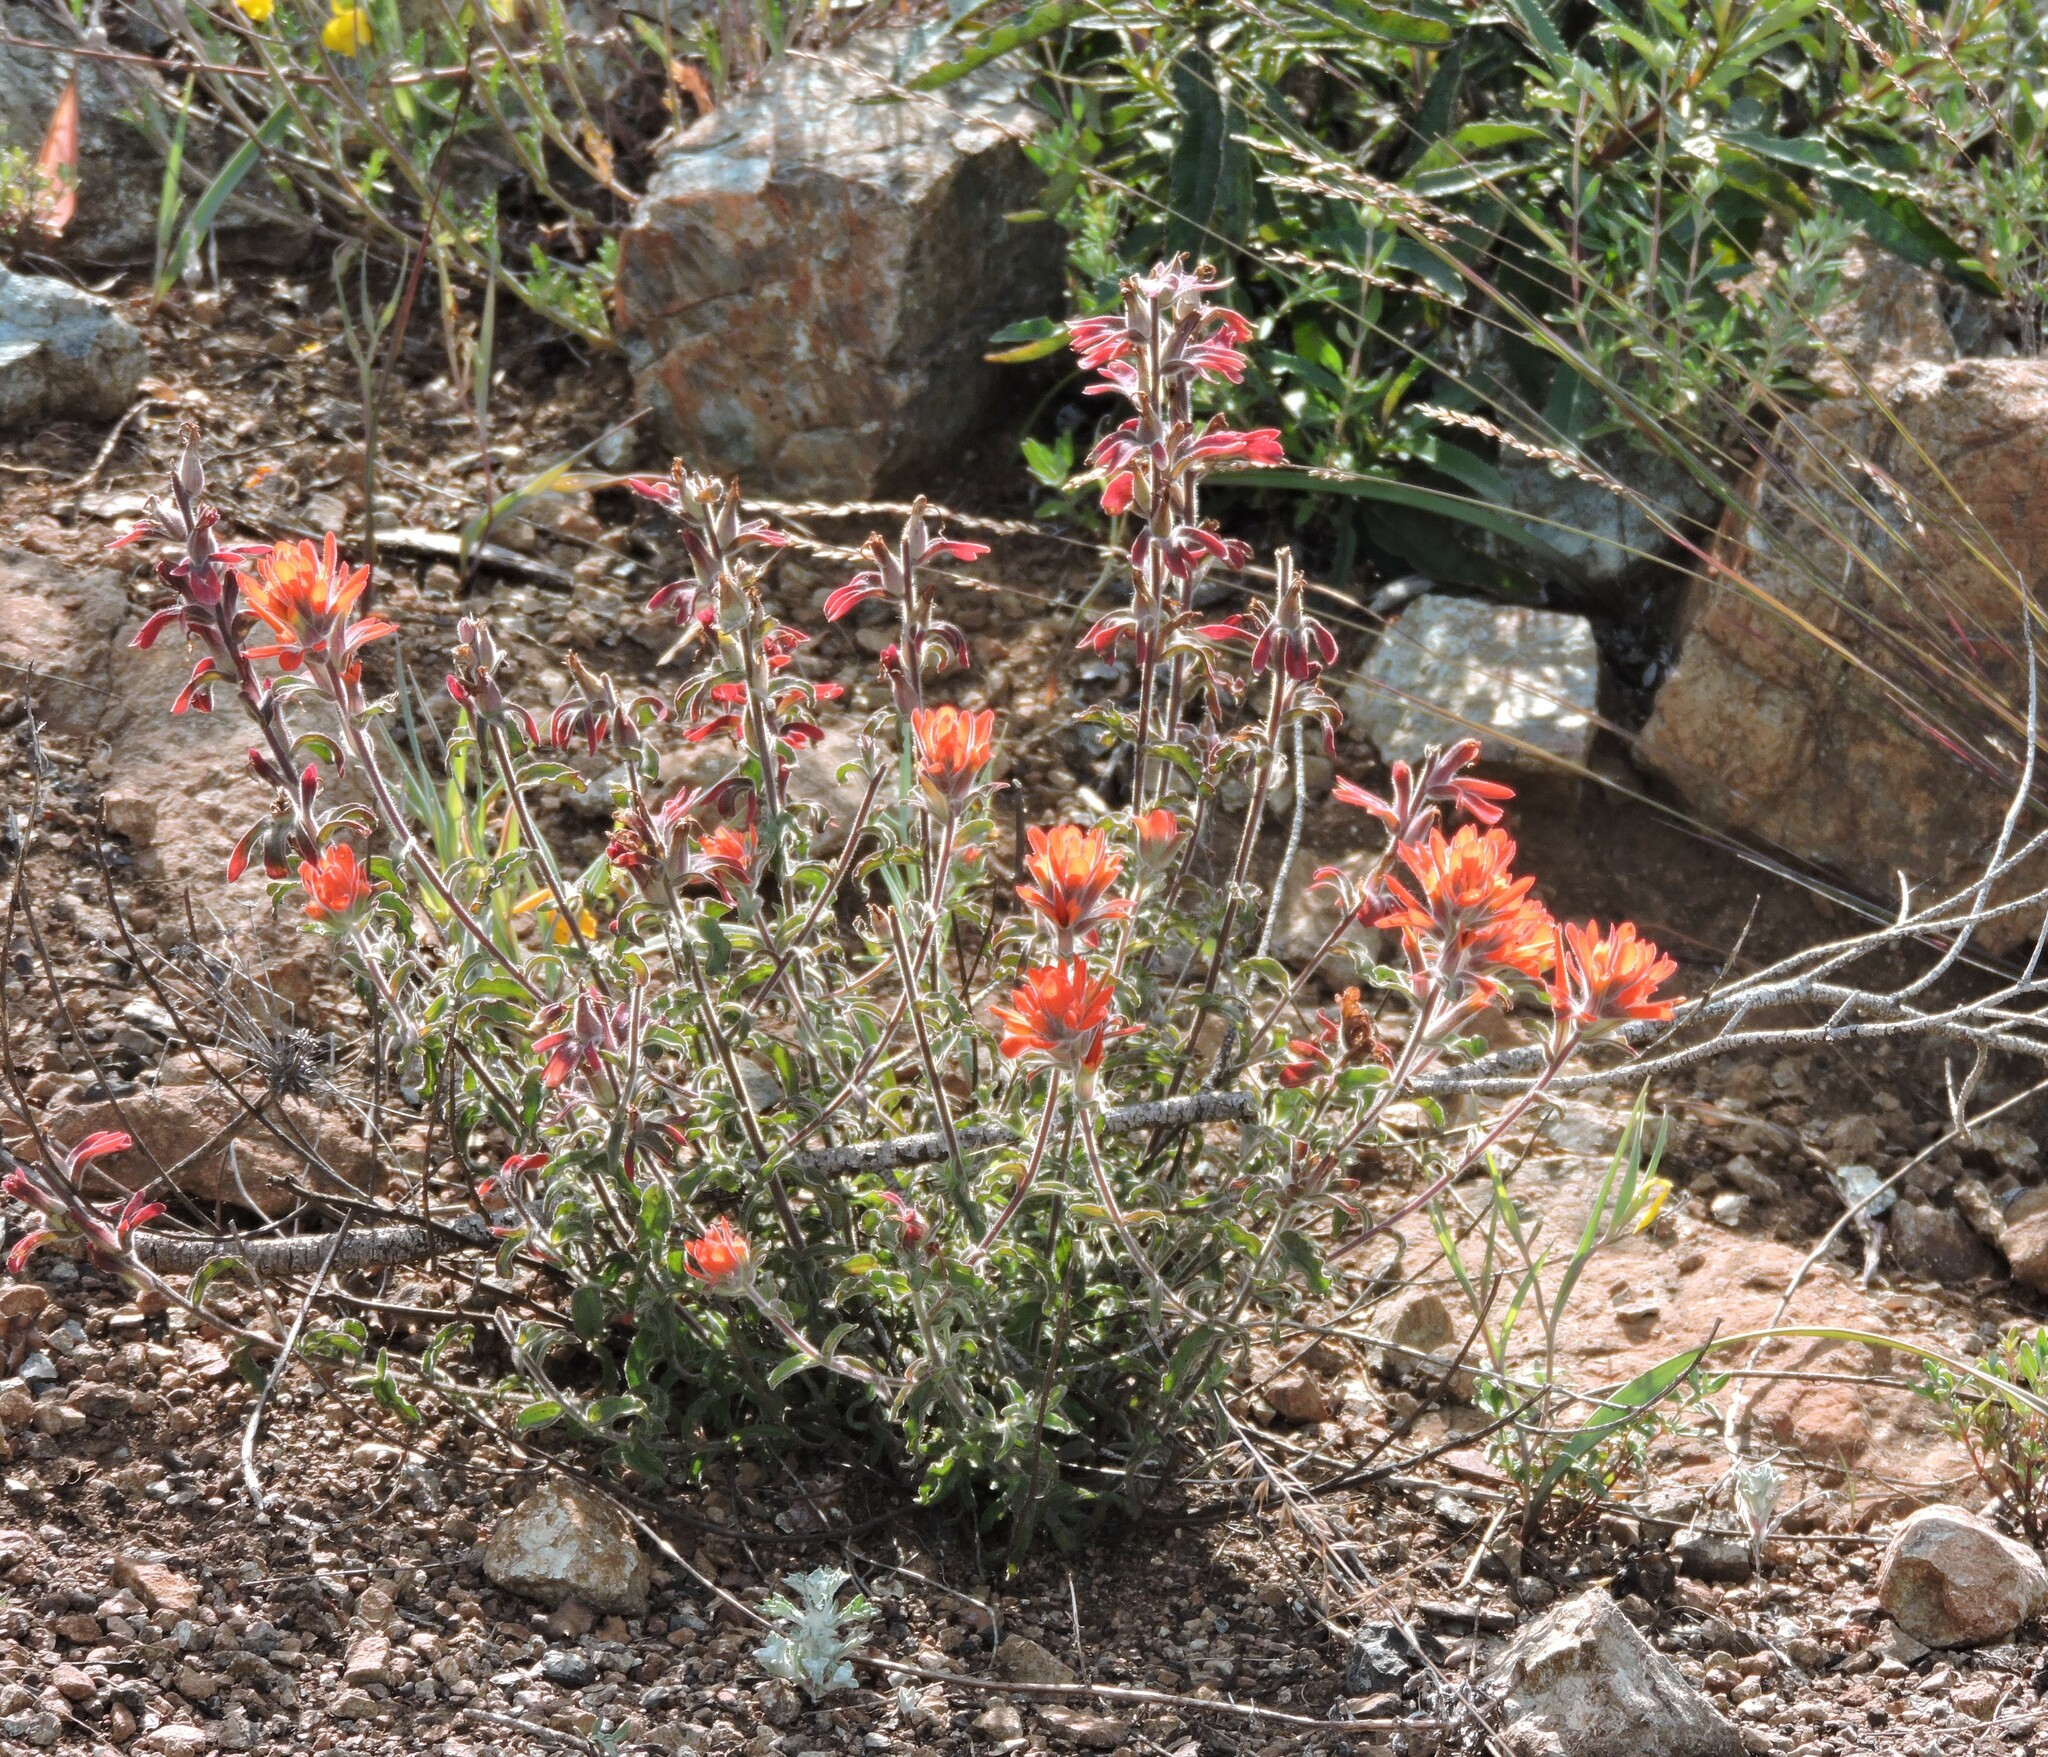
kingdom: Plantae
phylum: Tracheophyta
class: Magnoliopsida
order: Lamiales
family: Orobanchaceae
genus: Castilleja
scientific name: Castilleja foliolosa
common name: Woolly indian paintbrush
